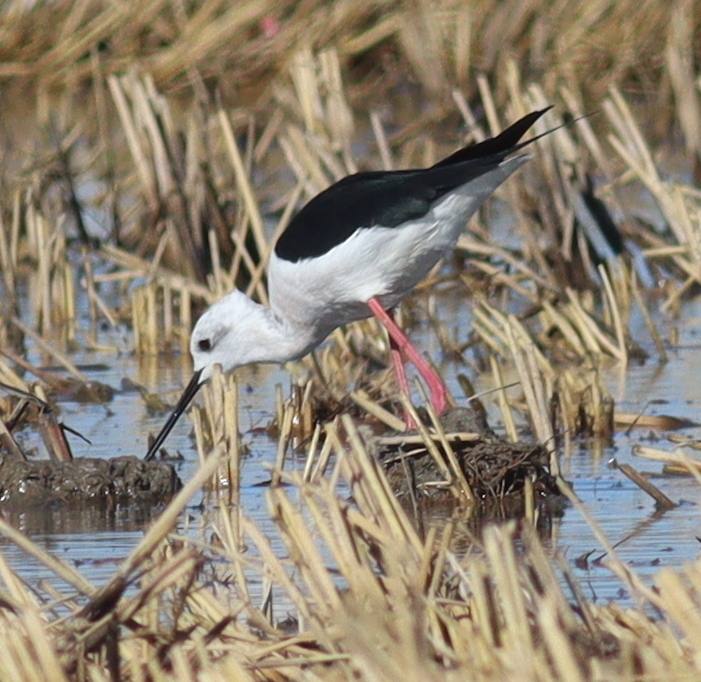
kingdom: Animalia
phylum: Chordata
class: Aves
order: Charadriiformes
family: Recurvirostridae
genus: Himantopus
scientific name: Himantopus himantopus
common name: Black-winged stilt
